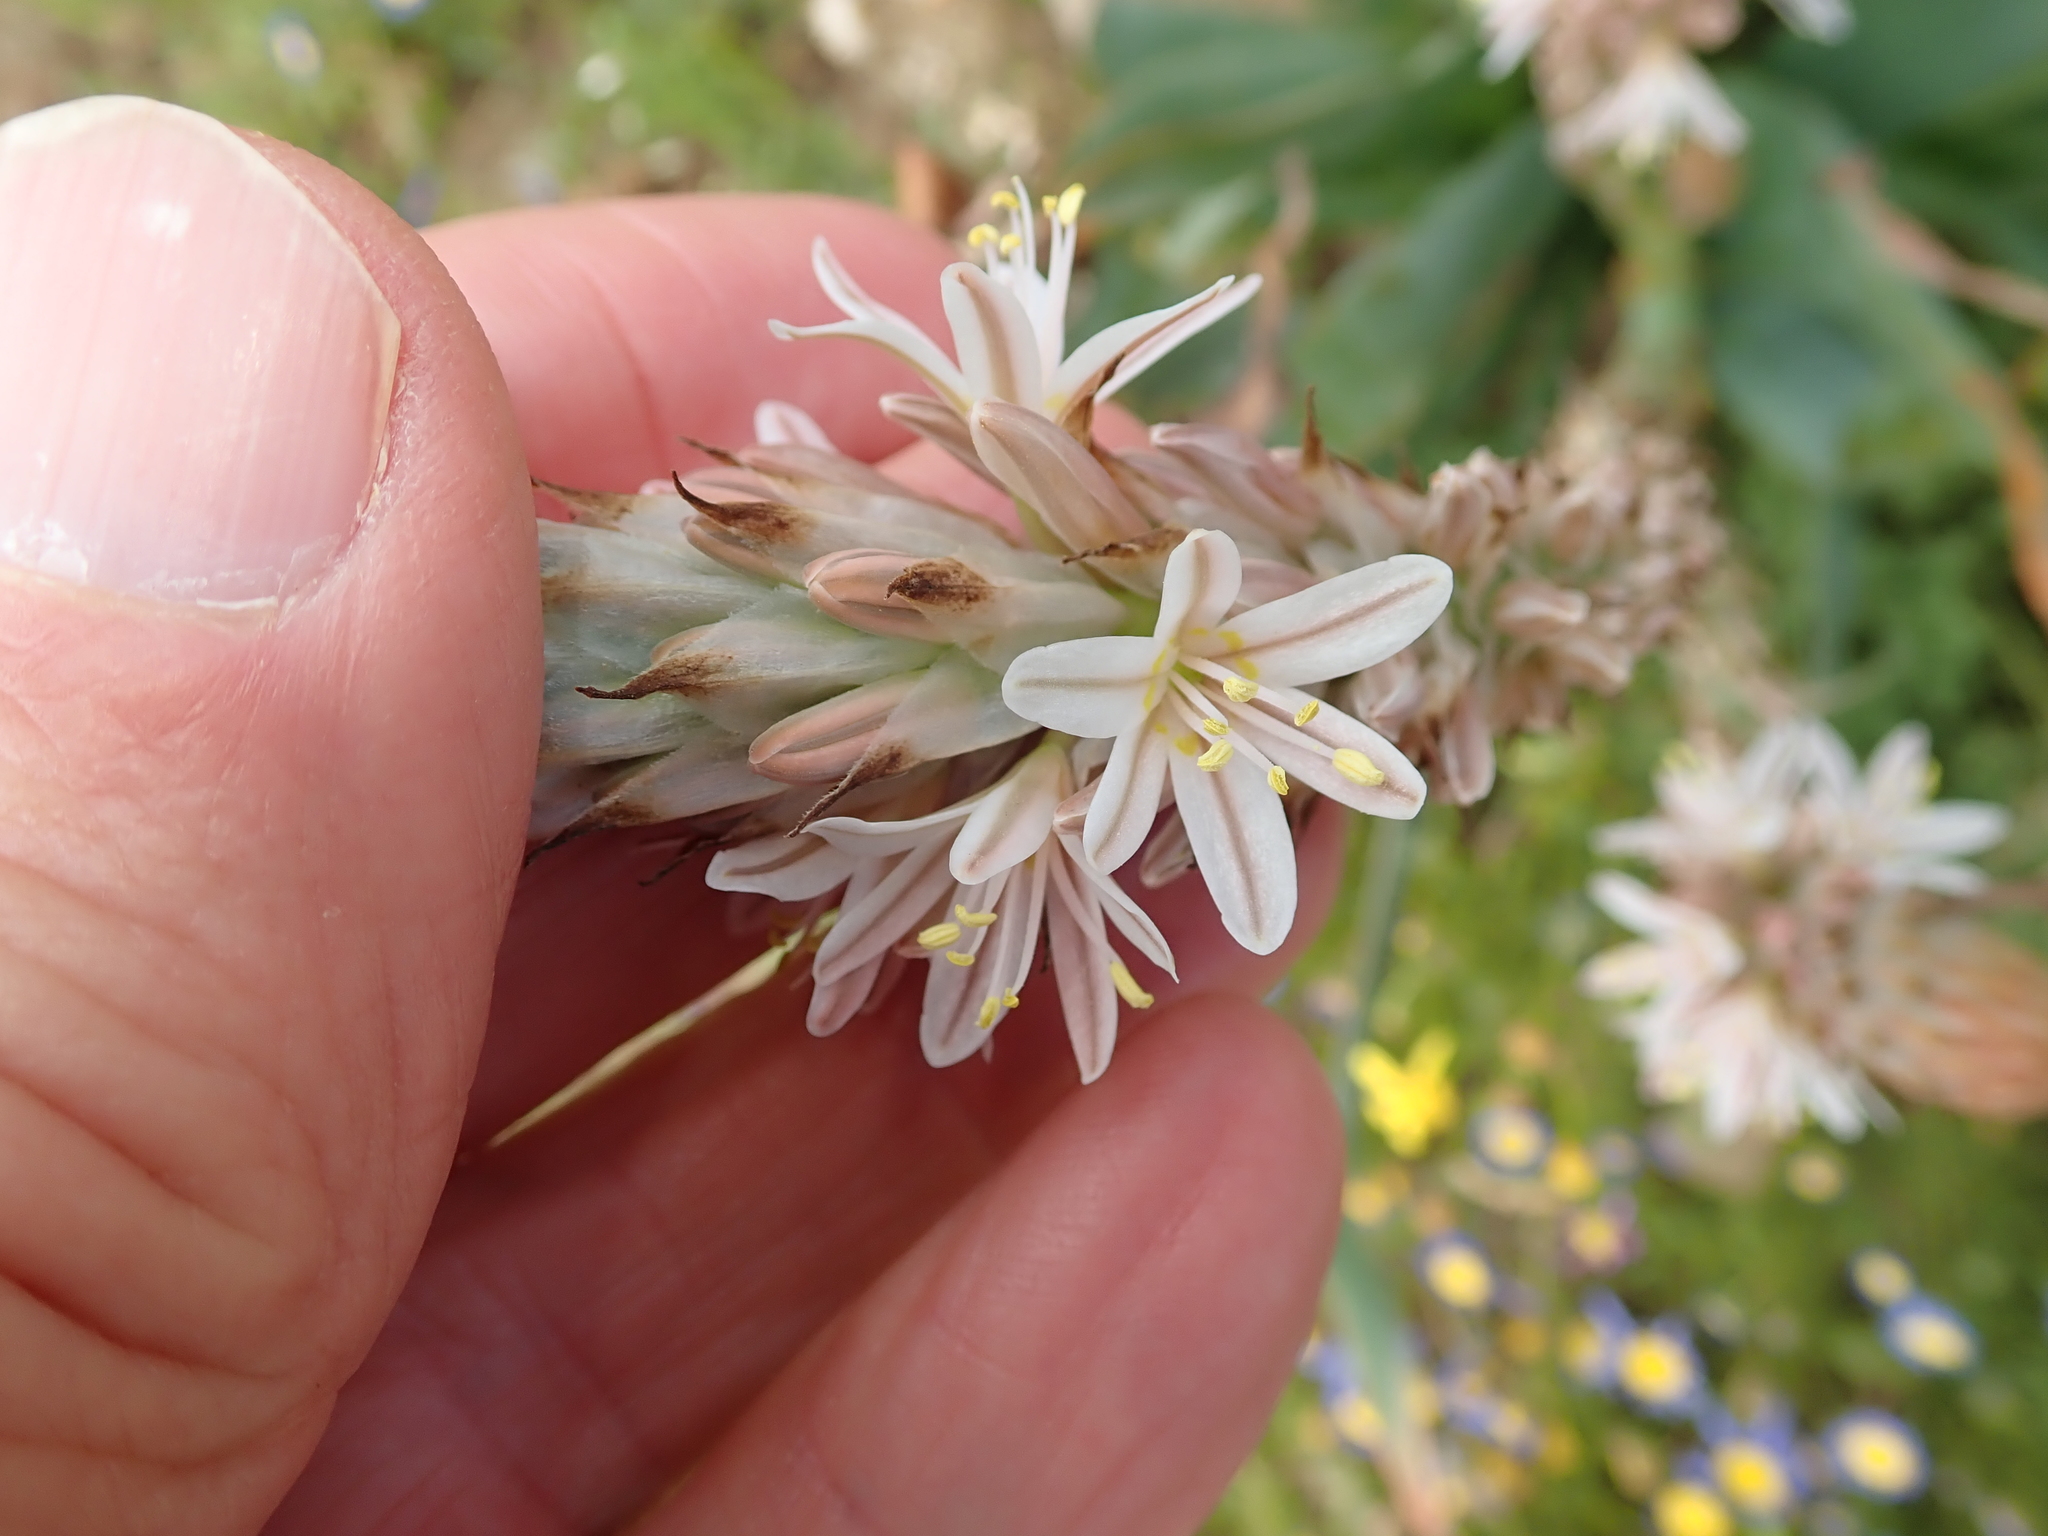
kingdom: Plantae
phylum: Tracheophyta
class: Liliopsida
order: Asparagales
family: Asphodelaceae
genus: Trachyandra
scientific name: Trachyandra falcata
